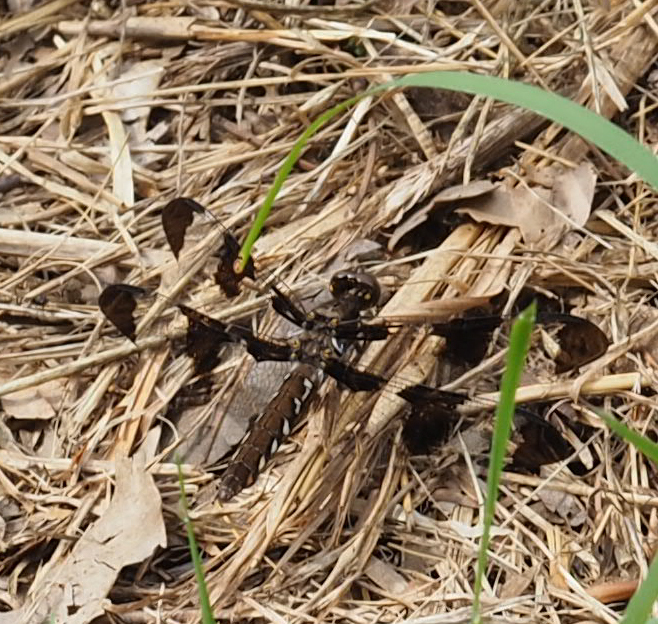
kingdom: Animalia
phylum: Arthropoda
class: Insecta
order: Odonata
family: Libellulidae
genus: Plathemis
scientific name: Plathemis lydia
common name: Common whitetail
